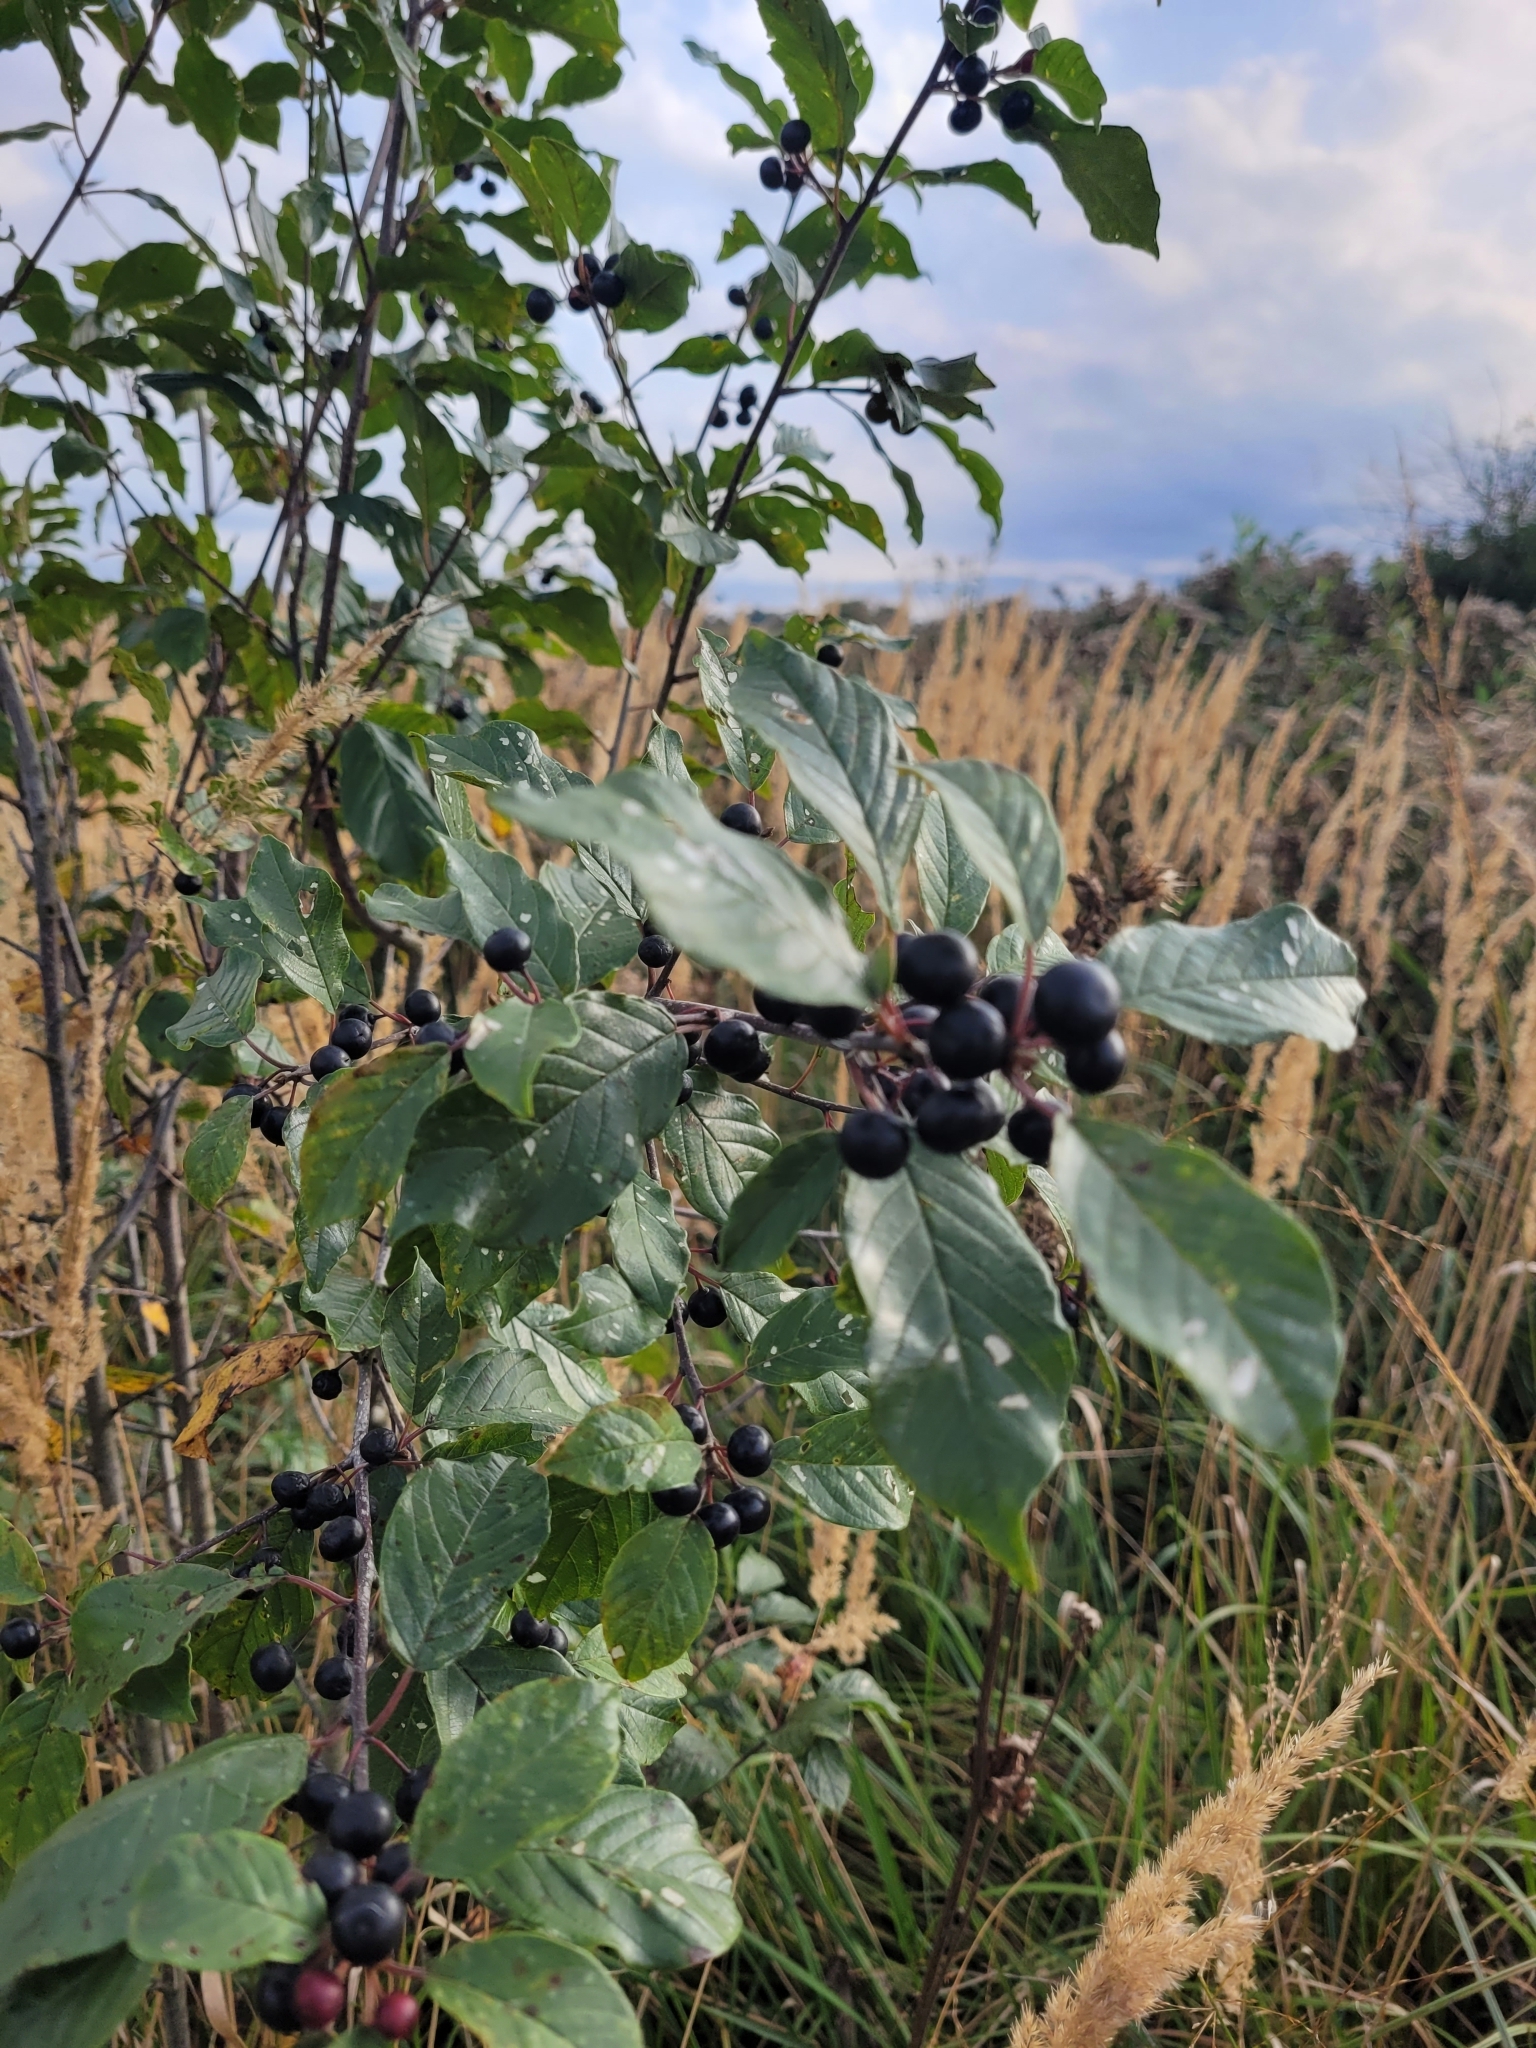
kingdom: Plantae
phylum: Tracheophyta
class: Magnoliopsida
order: Rosales
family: Rhamnaceae
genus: Frangula
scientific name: Frangula alnus
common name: Alder buckthorn
